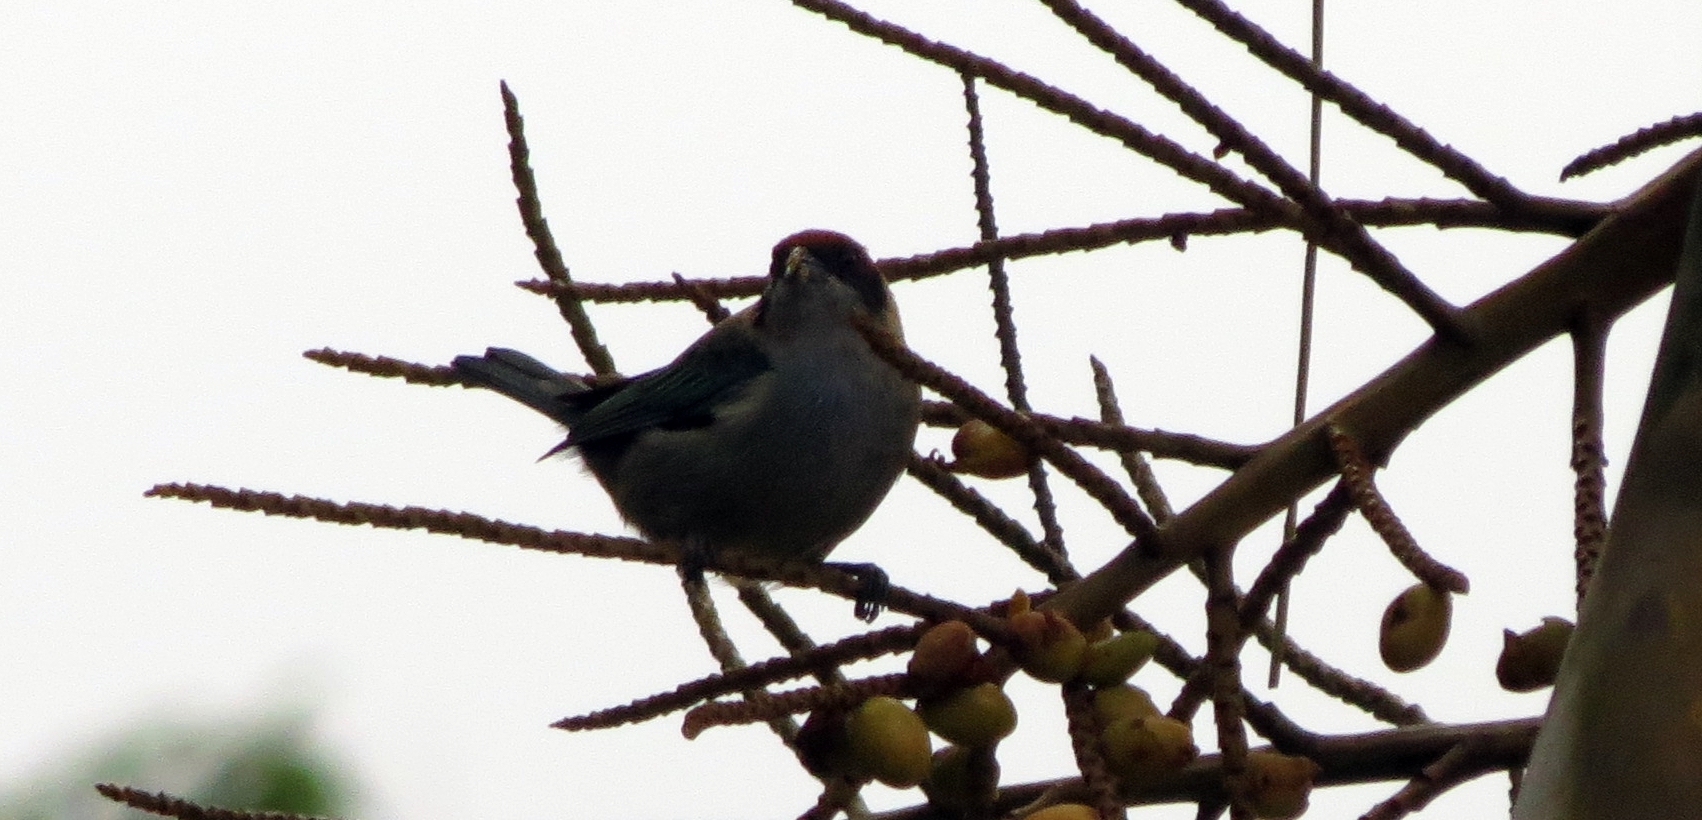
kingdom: Animalia
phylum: Chordata
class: Aves
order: Passeriformes
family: Thraupidae
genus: Stilpnia
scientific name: Stilpnia vitriolina
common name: Scrub tanager
